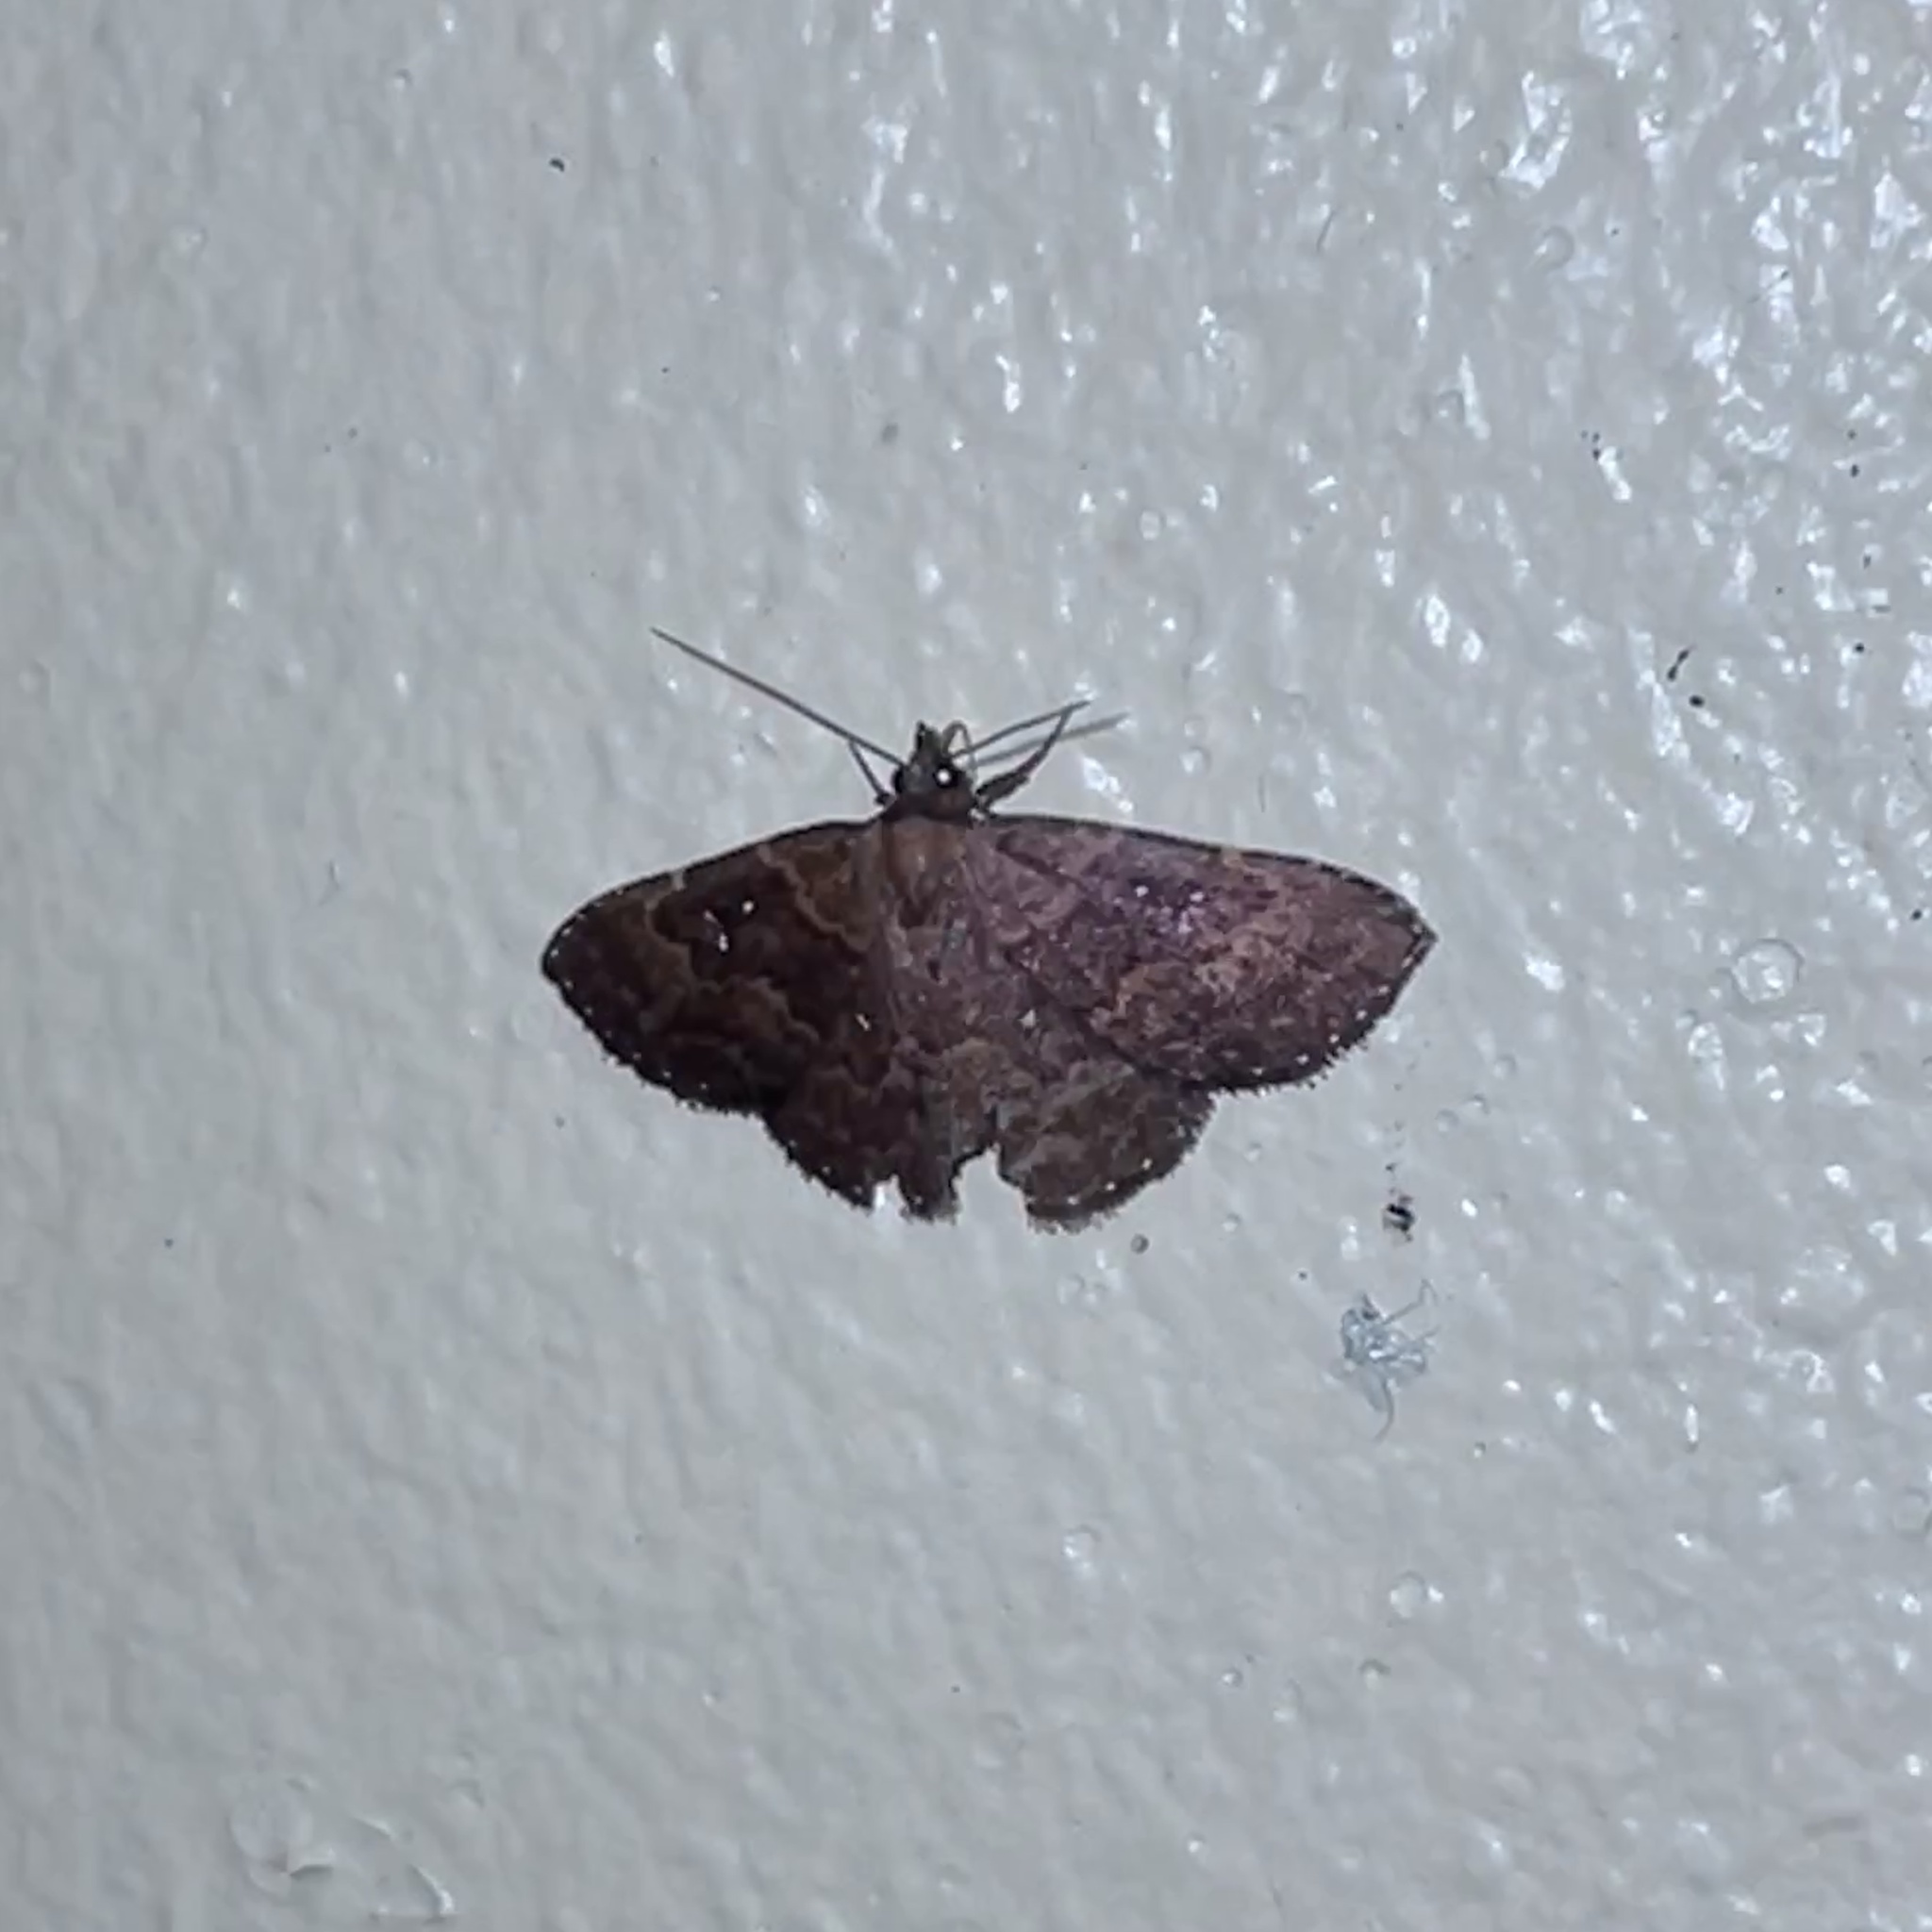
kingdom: Animalia
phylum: Arthropoda
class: Insecta
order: Lepidoptera
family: Erebidae
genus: Ostha
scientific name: Ostha coryphata
